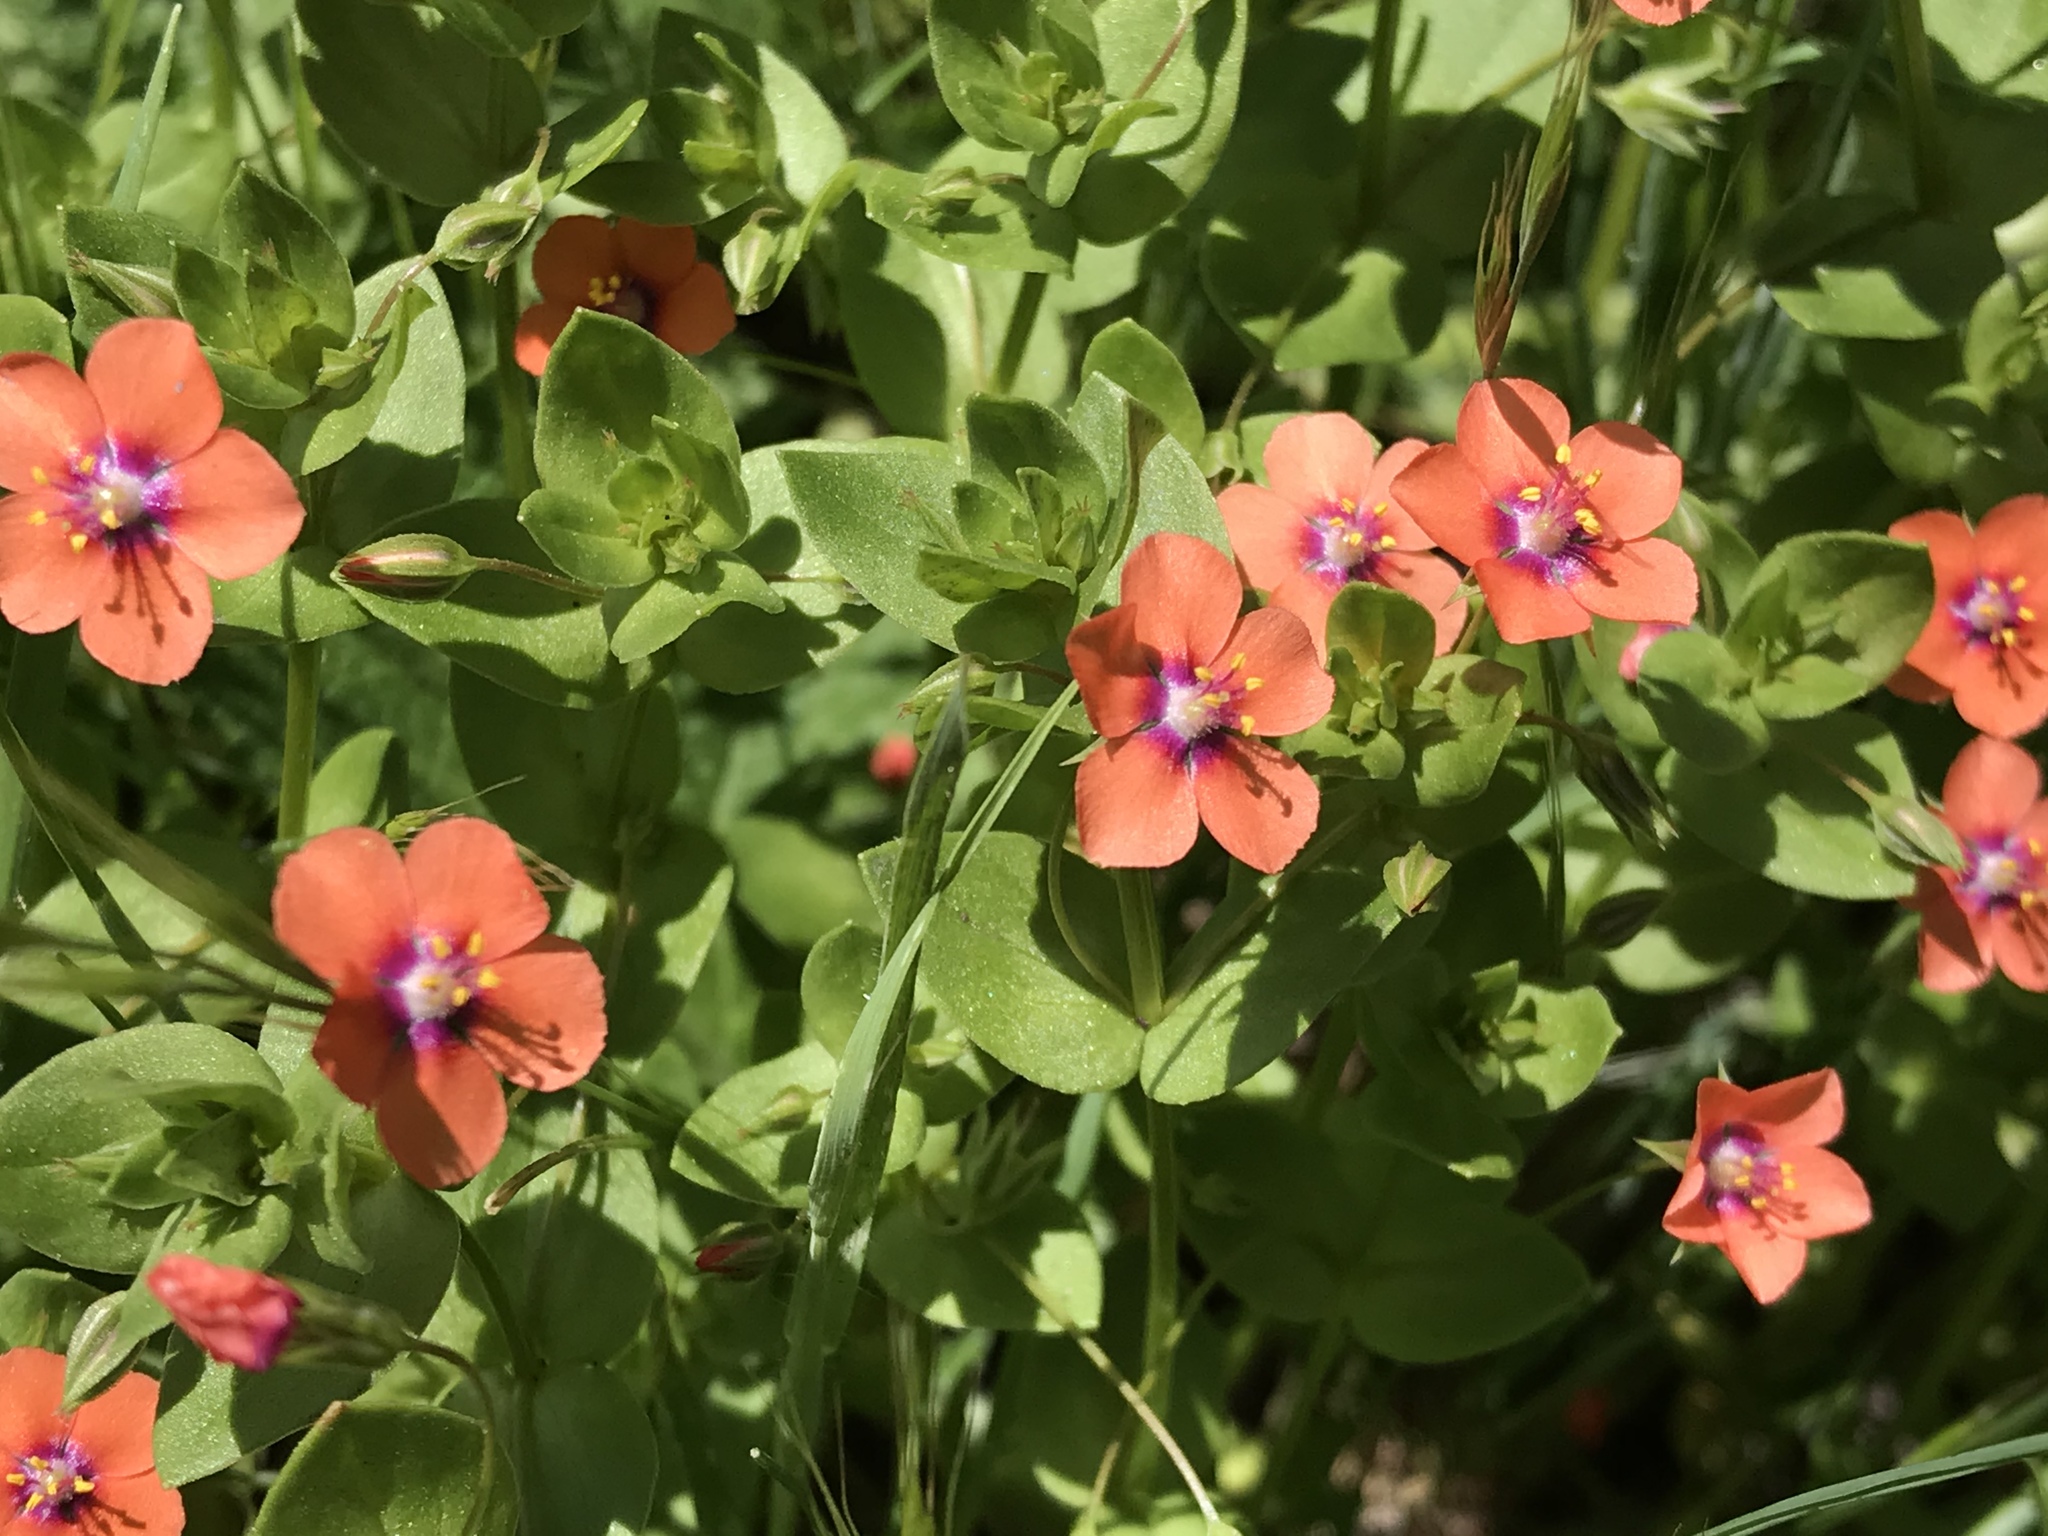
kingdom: Plantae
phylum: Tracheophyta
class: Magnoliopsida
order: Ericales
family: Primulaceae
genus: Lysimachia
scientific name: Lysimachia arvensis
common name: Scarlet pimpernel
